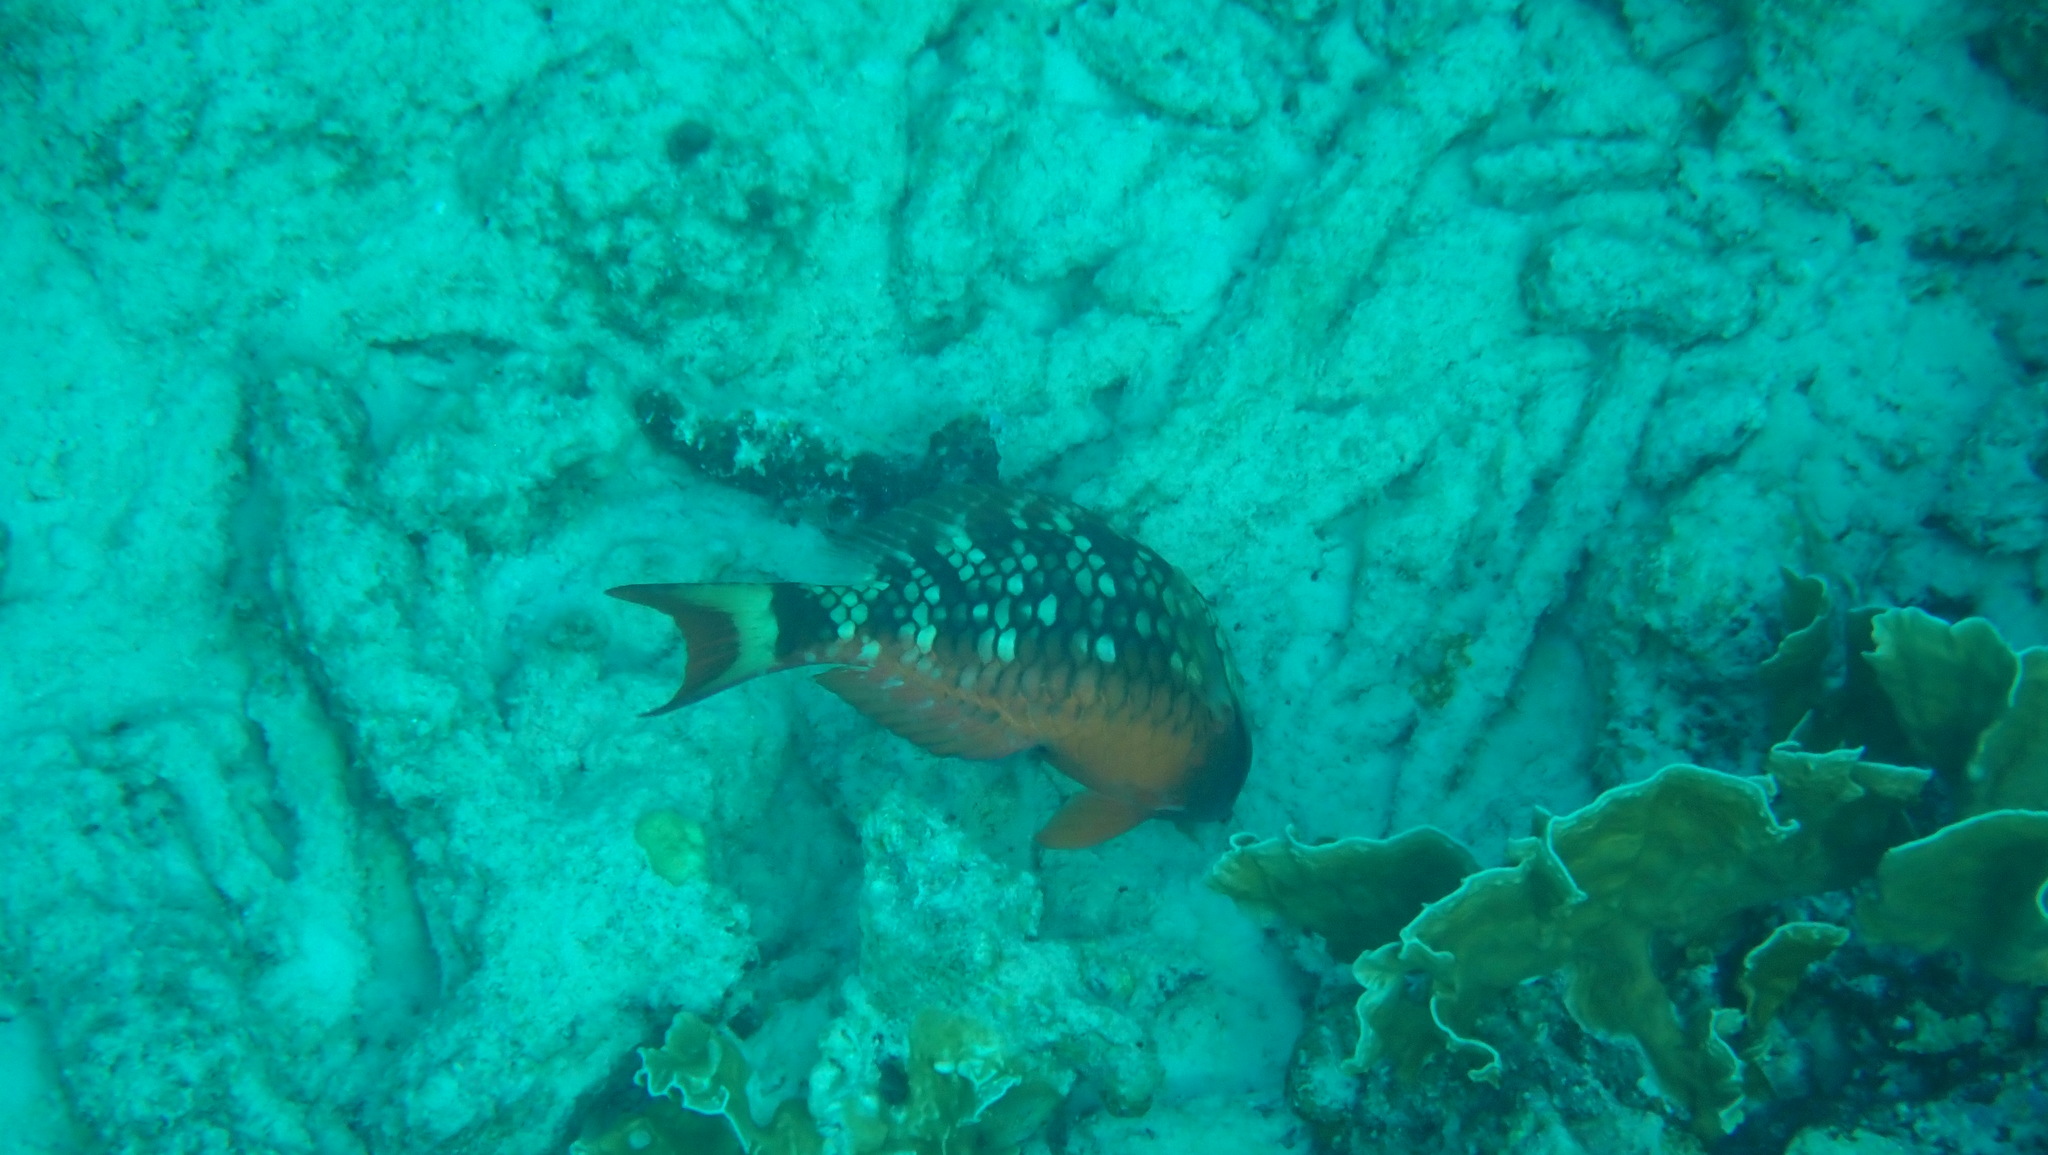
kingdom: Animalia
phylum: Chordata
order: Perciformes
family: Scaridae
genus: Sparisoma
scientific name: Sparisoma viride
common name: Stoplight parrotfish
